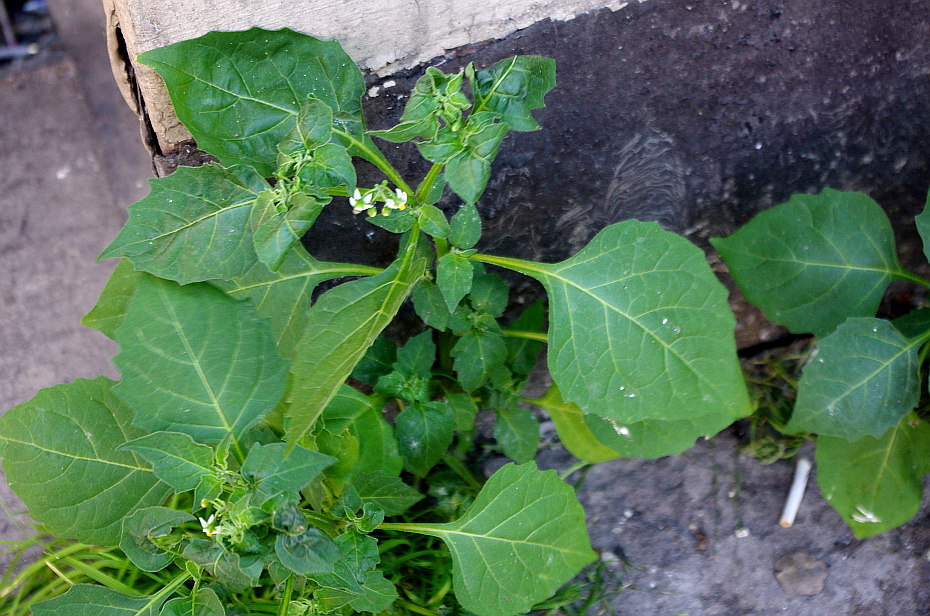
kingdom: Plantae
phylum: Tracheophyta
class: Magnoliopsida
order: Solanales
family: Solanaceae
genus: Solanum
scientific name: Solanum nigrum
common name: Black nightshade
